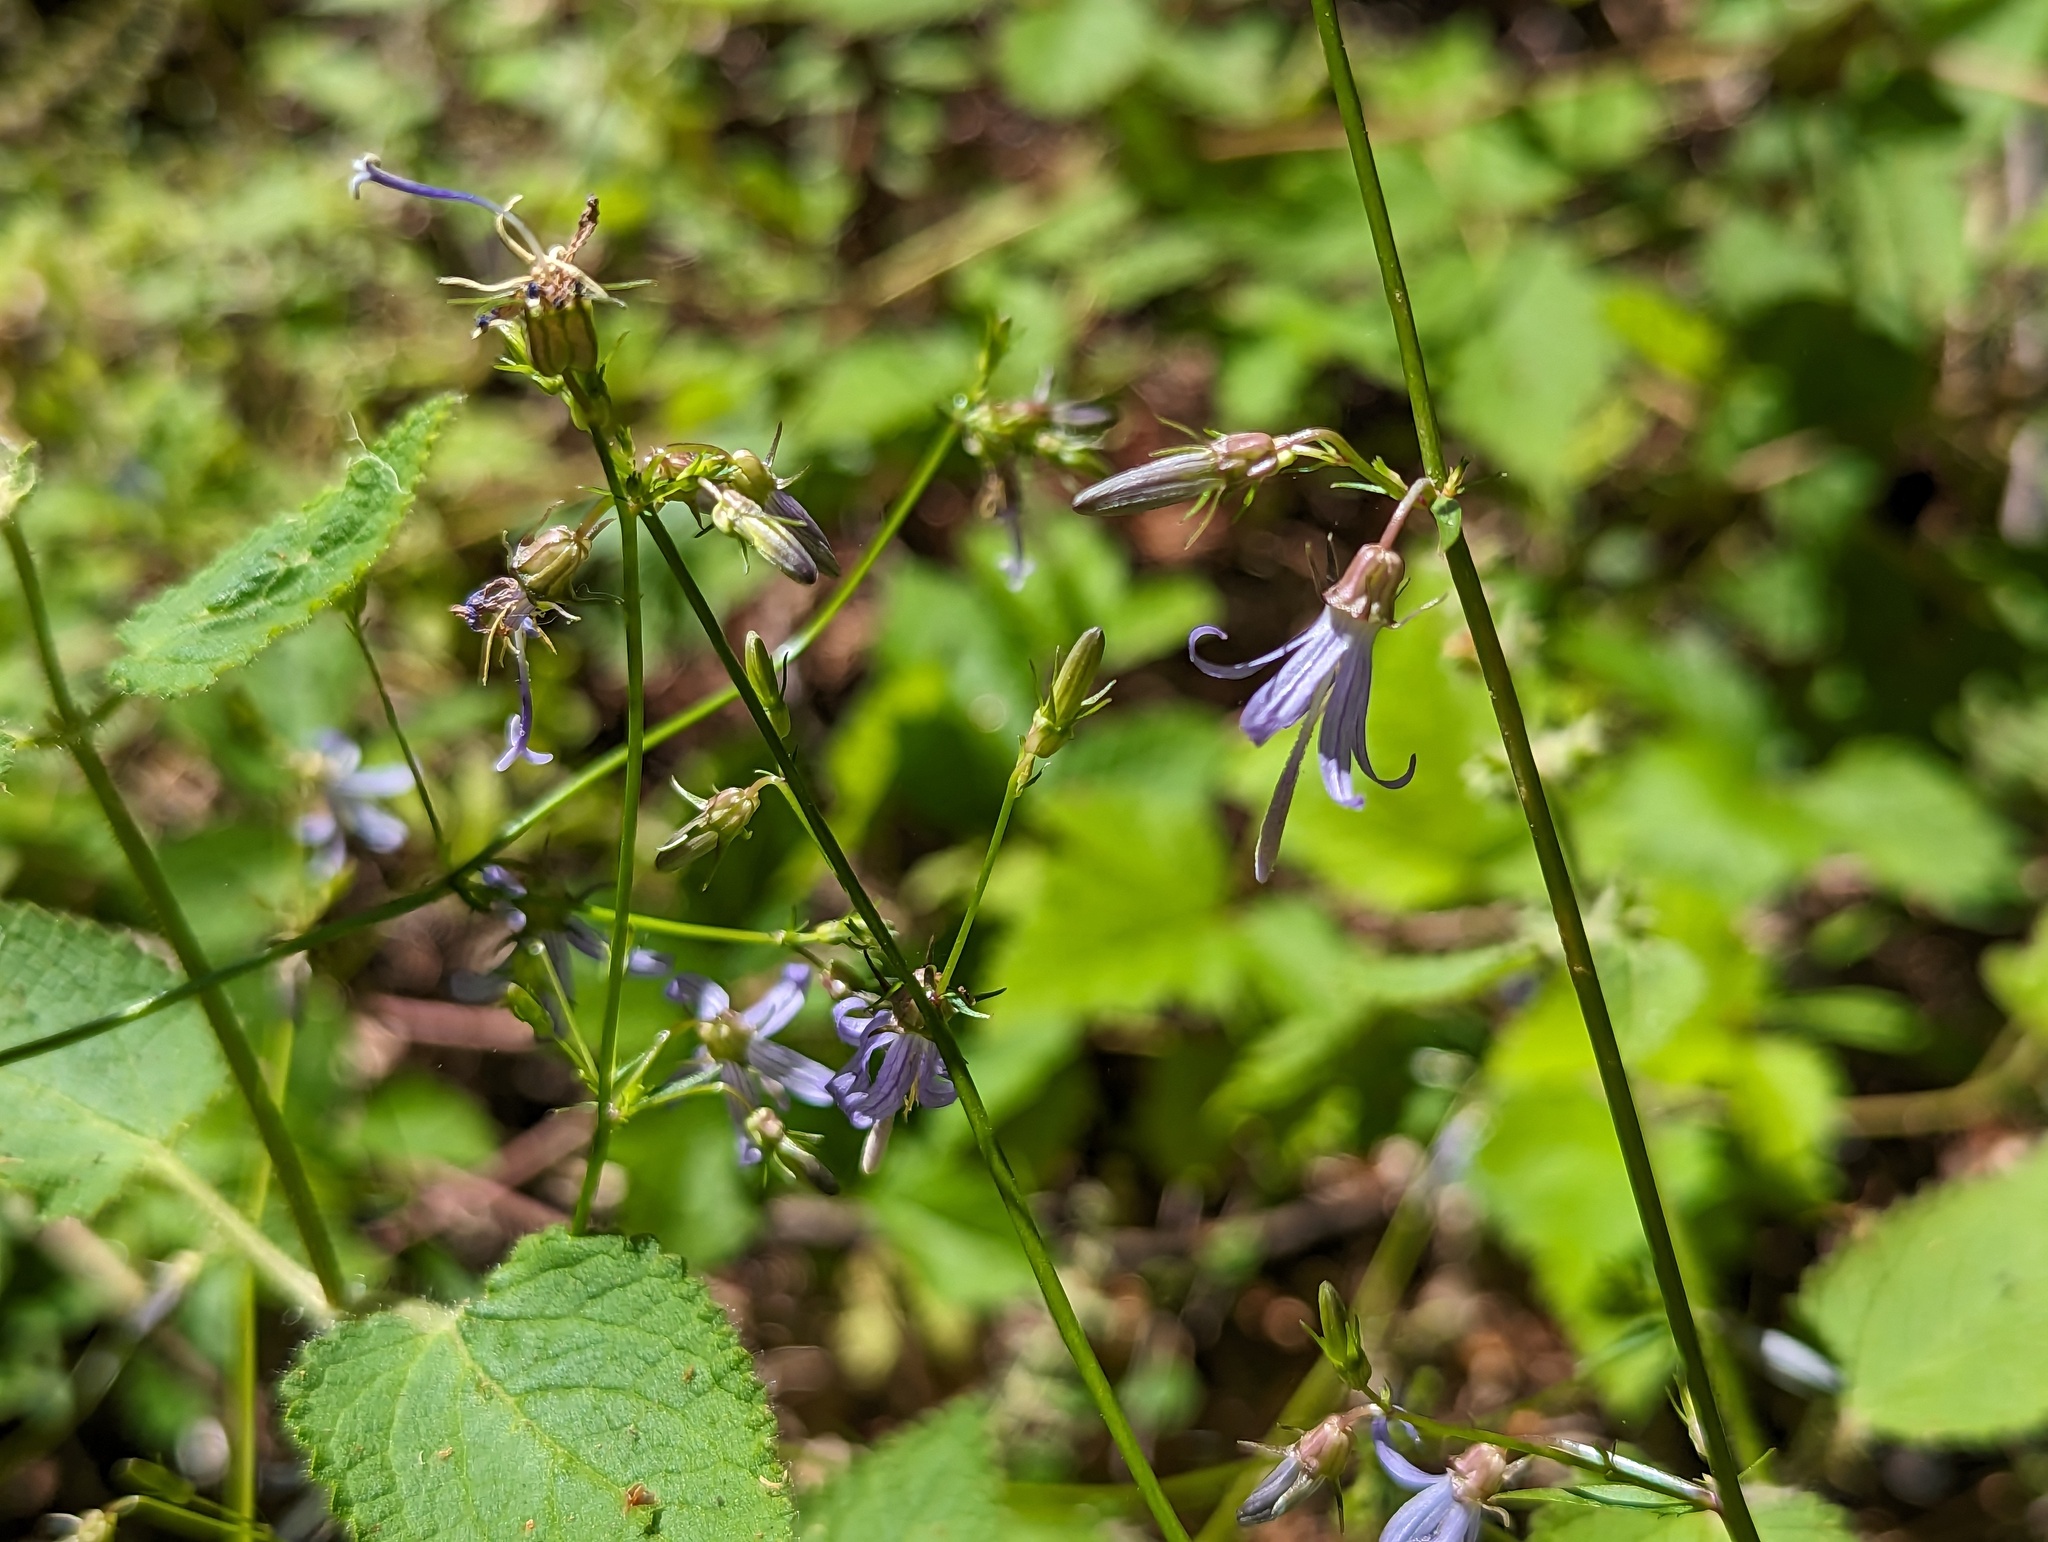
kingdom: Plantae
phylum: Tracheophyta
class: Magnoliopsida
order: Asterales
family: Campanulaceae
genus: Smithiastrum
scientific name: Smithiastrum prenanthoides
